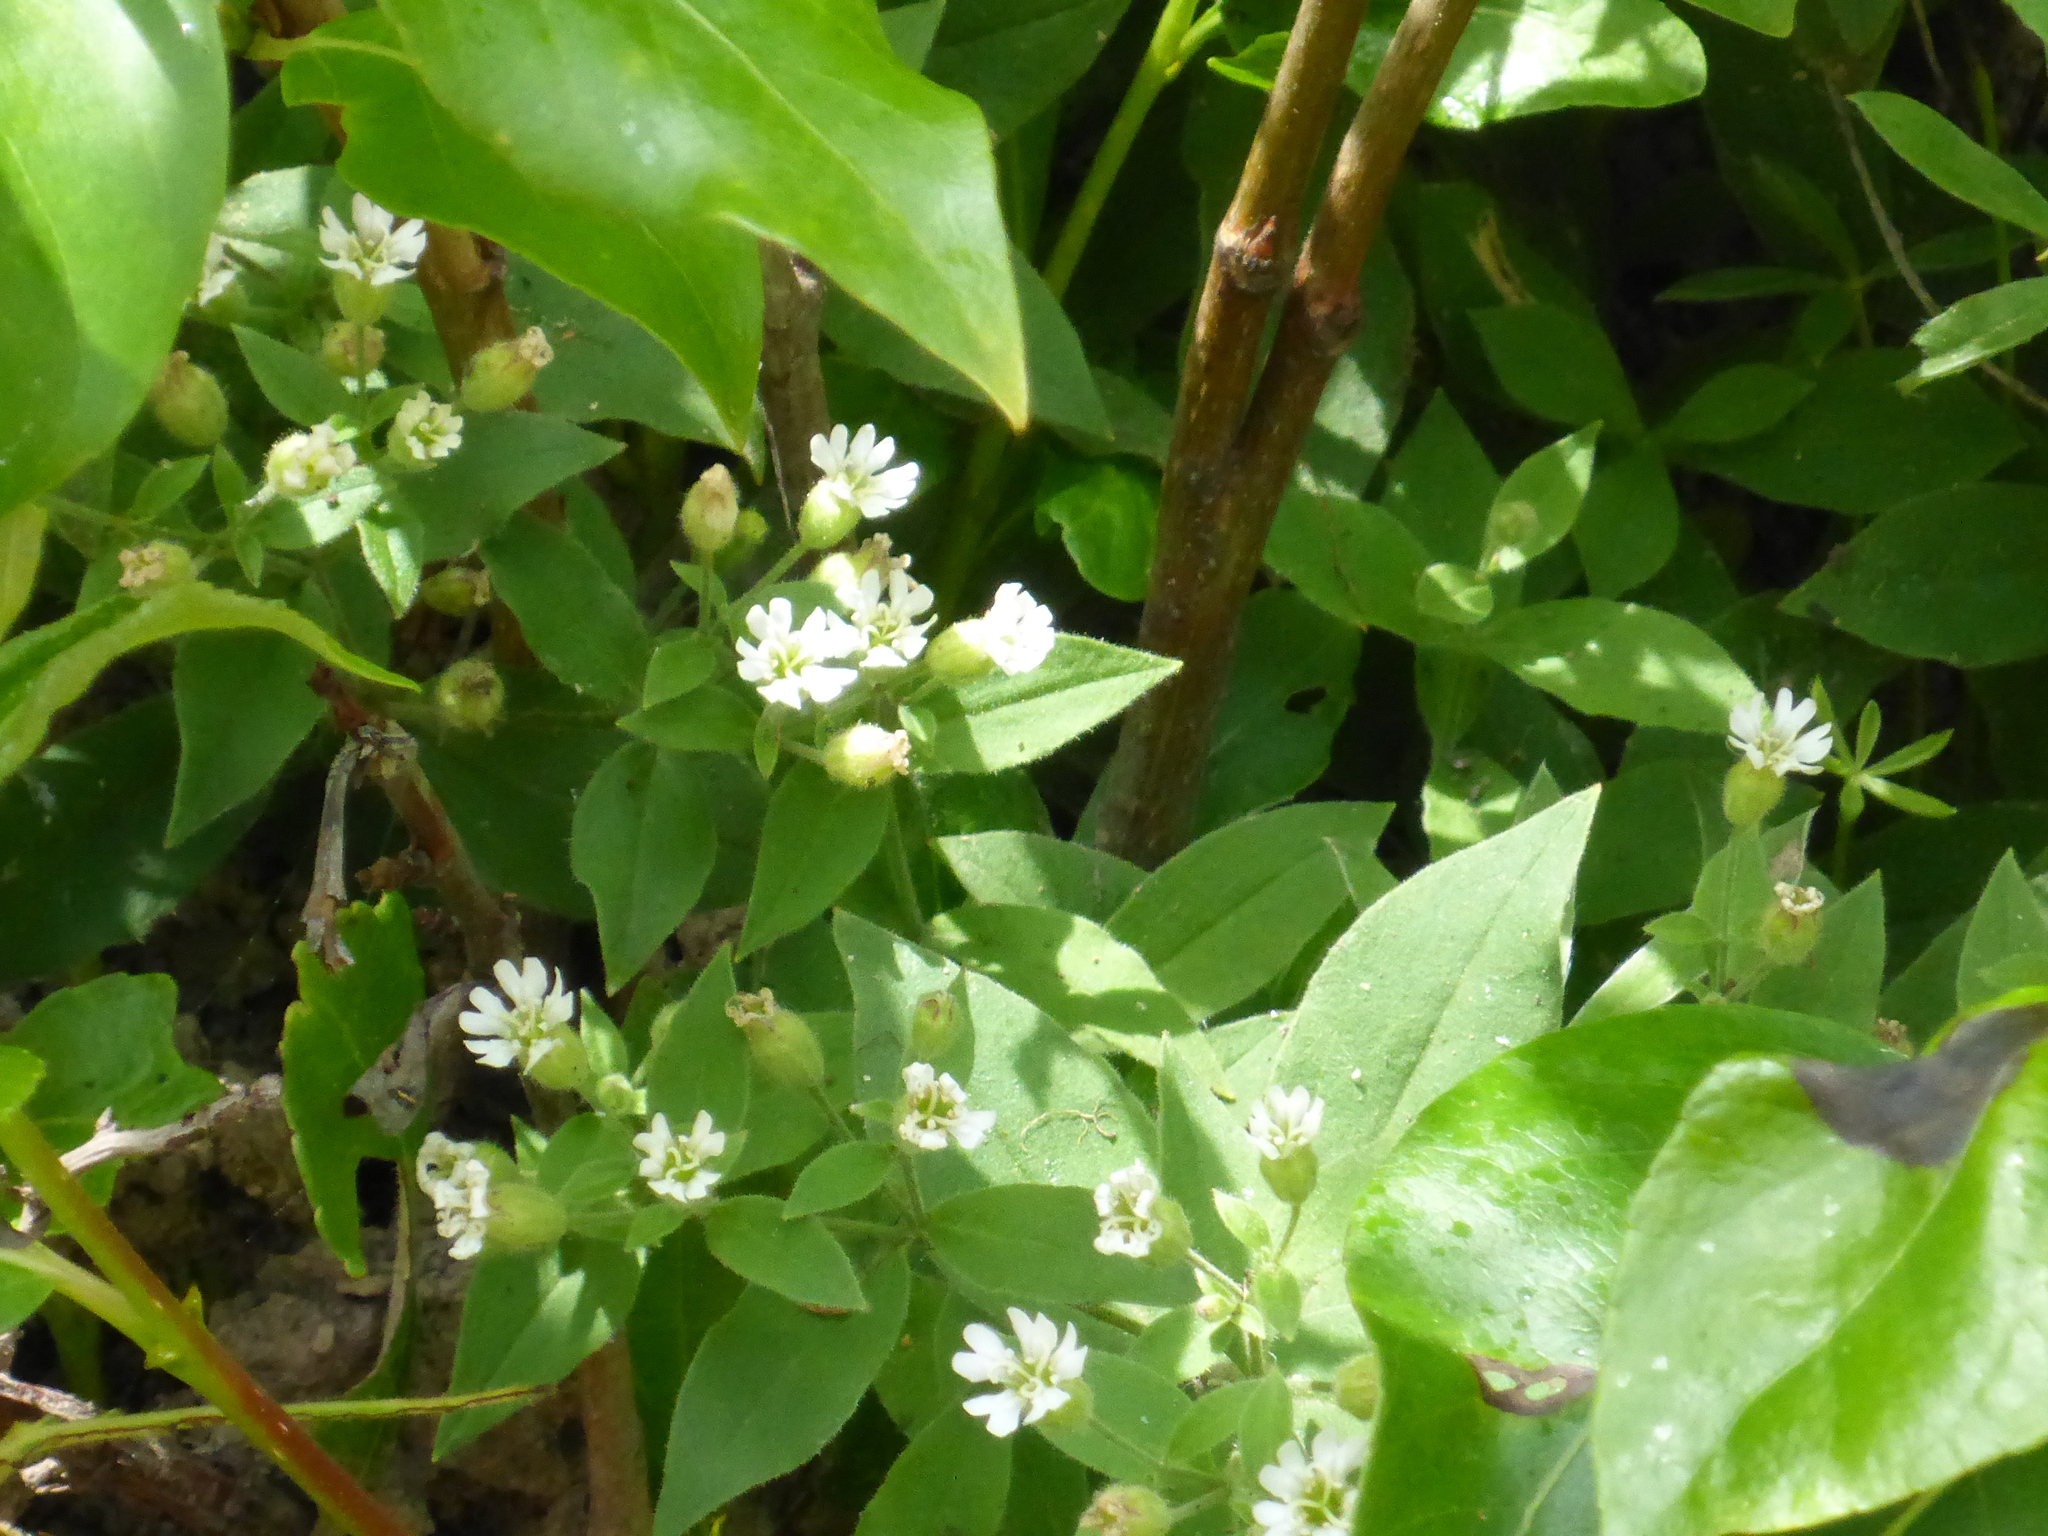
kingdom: Plantae
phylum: Tracheophyta
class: Magnoliopsida
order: Caryophyllales
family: Caryophyllaceae
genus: Silene
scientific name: Silene menziesii
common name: Menzies's catchfly
